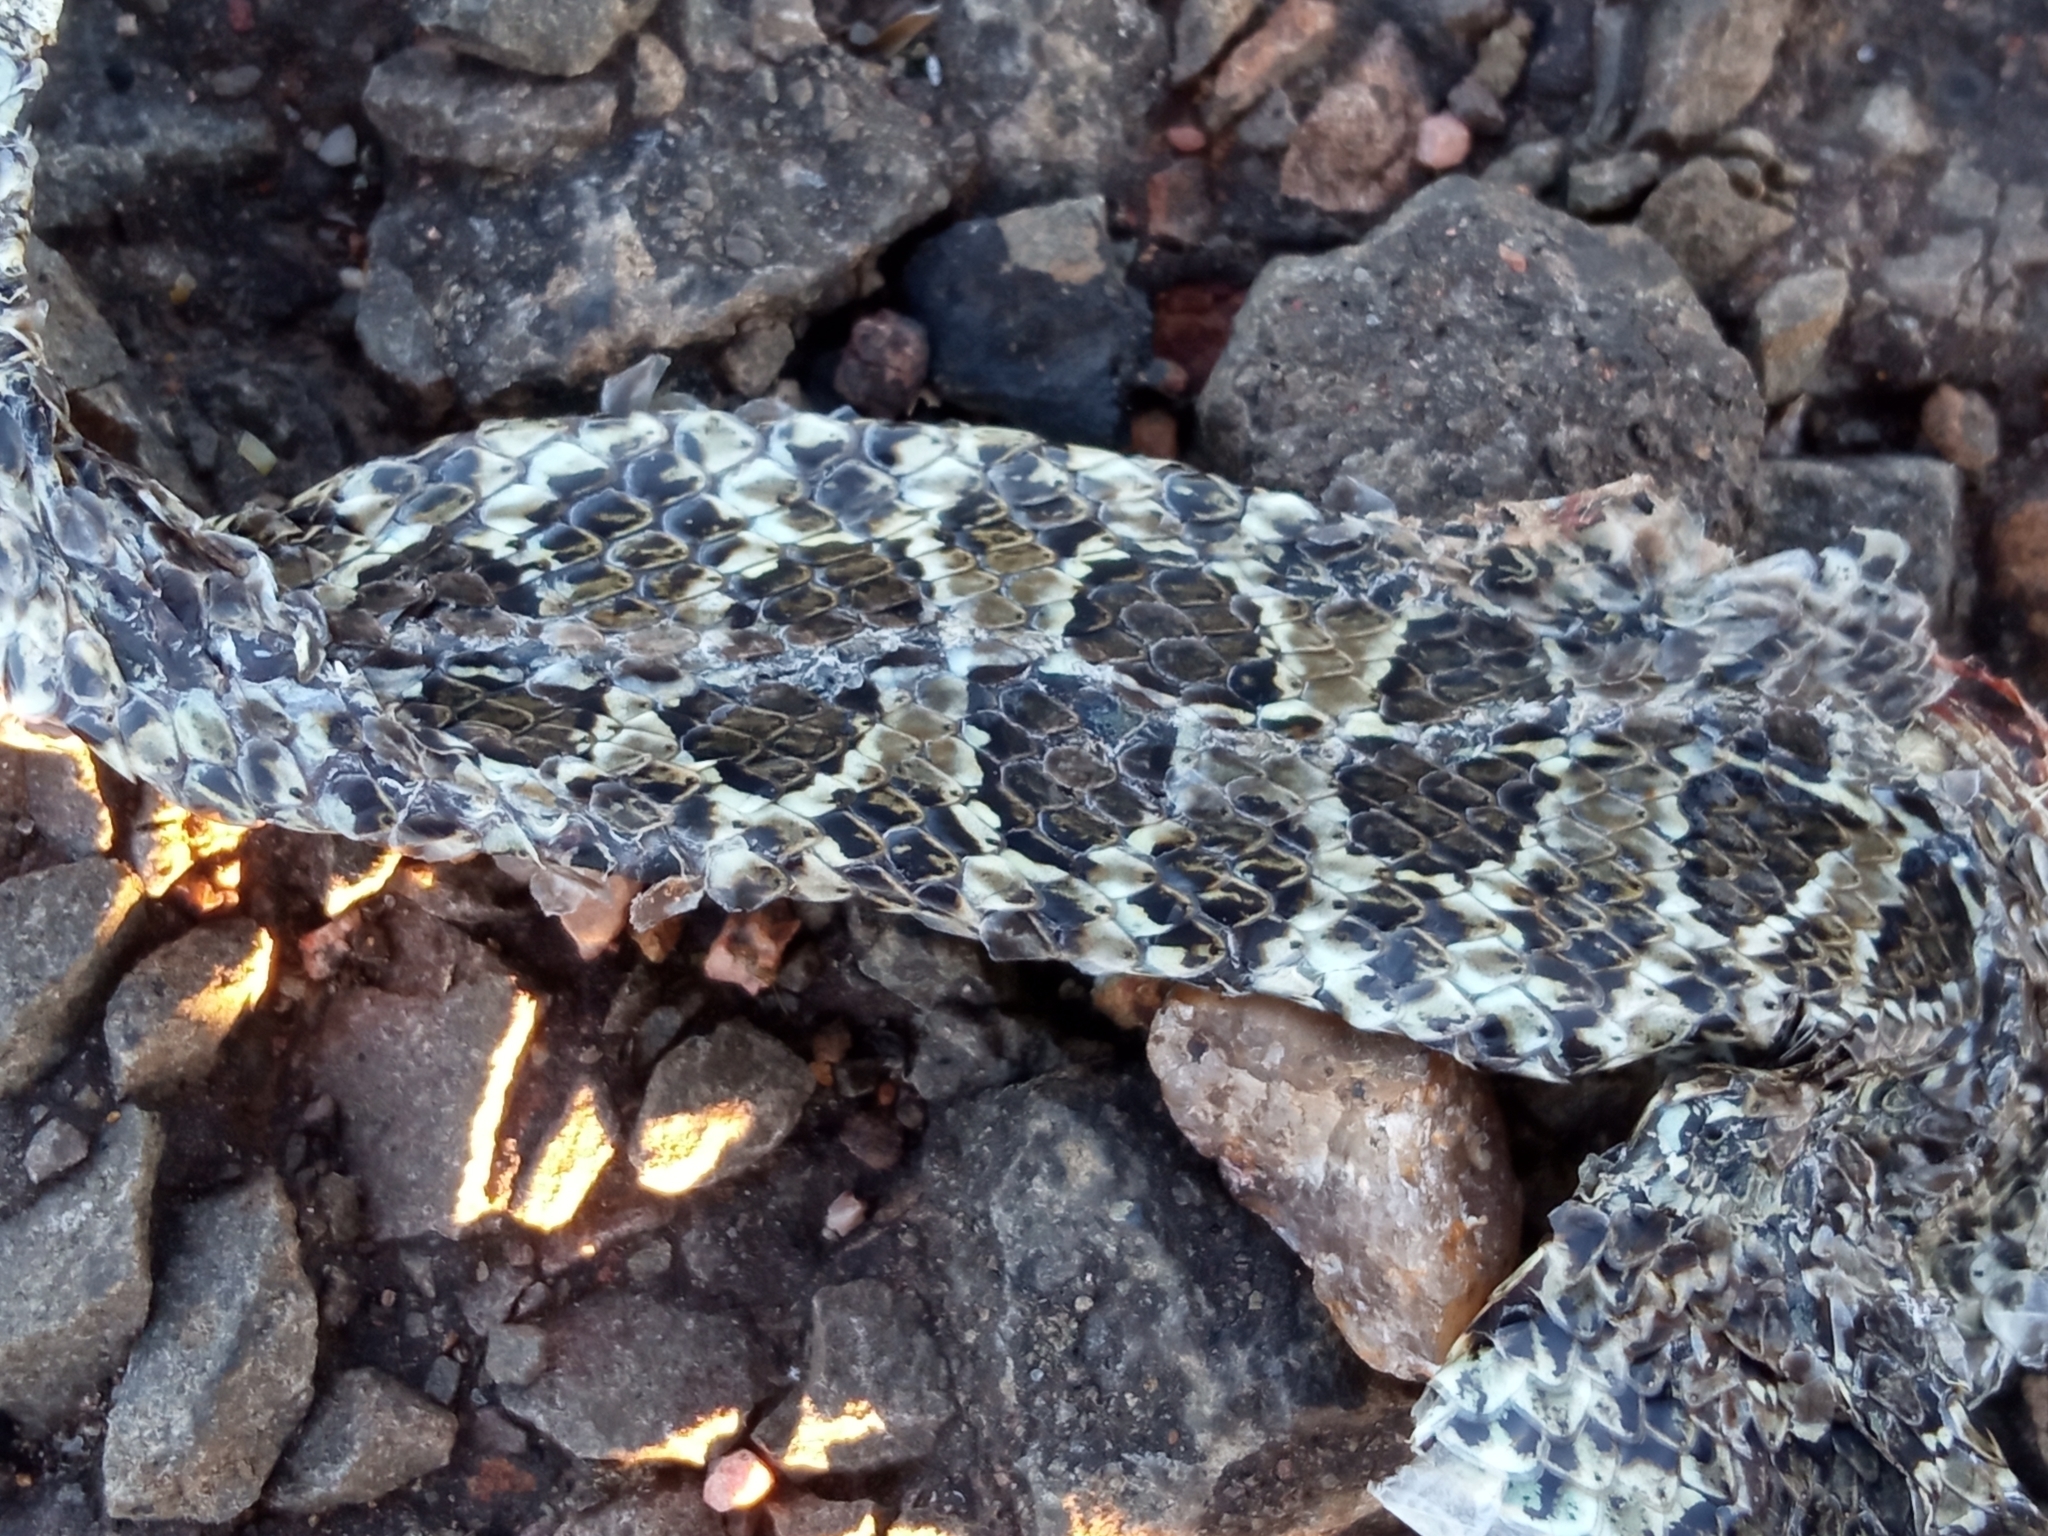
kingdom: Animalia
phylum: Chordata
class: Squamata
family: Colubridae
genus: Tachymenis
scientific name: Tachymenis
